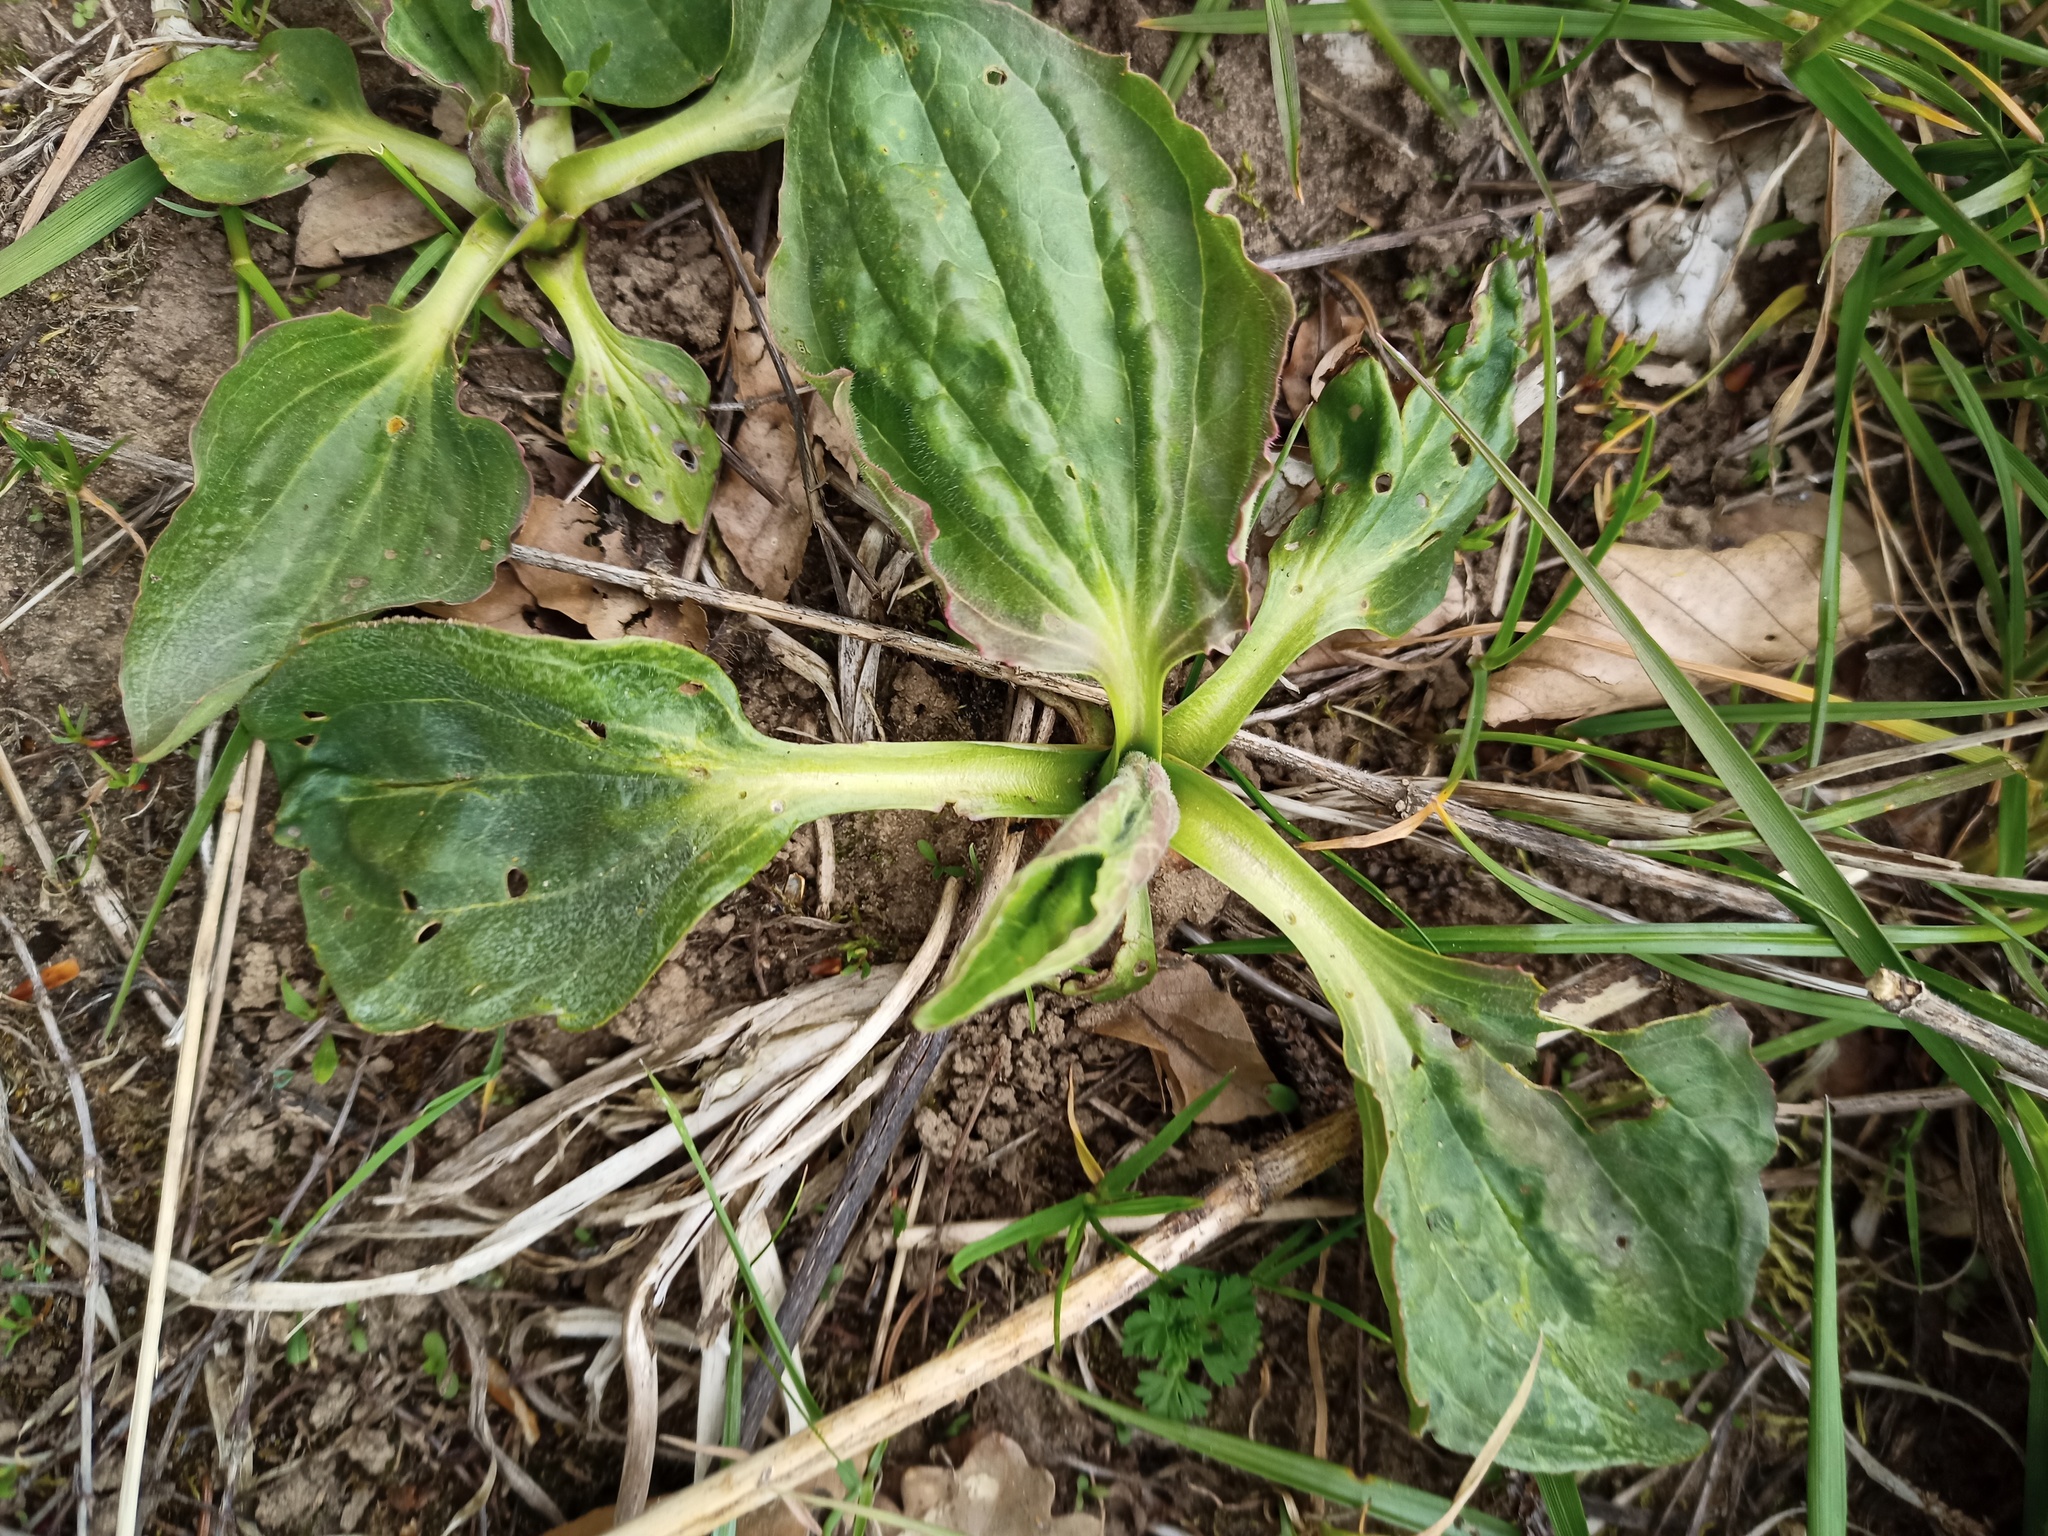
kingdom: Plantae
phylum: Tracheophyta
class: Magnoliopsida
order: Lamiales
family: Plantaginaceae
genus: Plantago
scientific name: Plantago major
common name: Common plantain
